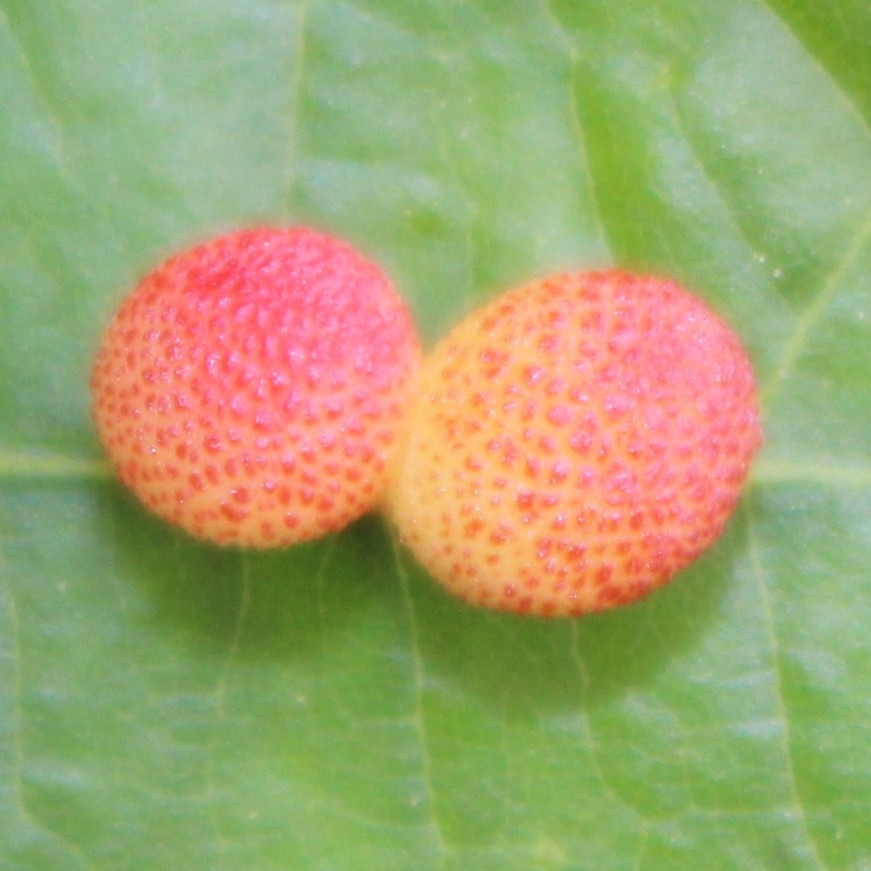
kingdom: Animalia
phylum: Arthropoda
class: Insecta
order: Hymenoptera
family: Cynipidae
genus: Acraspis
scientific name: Acraspis quercushirta
